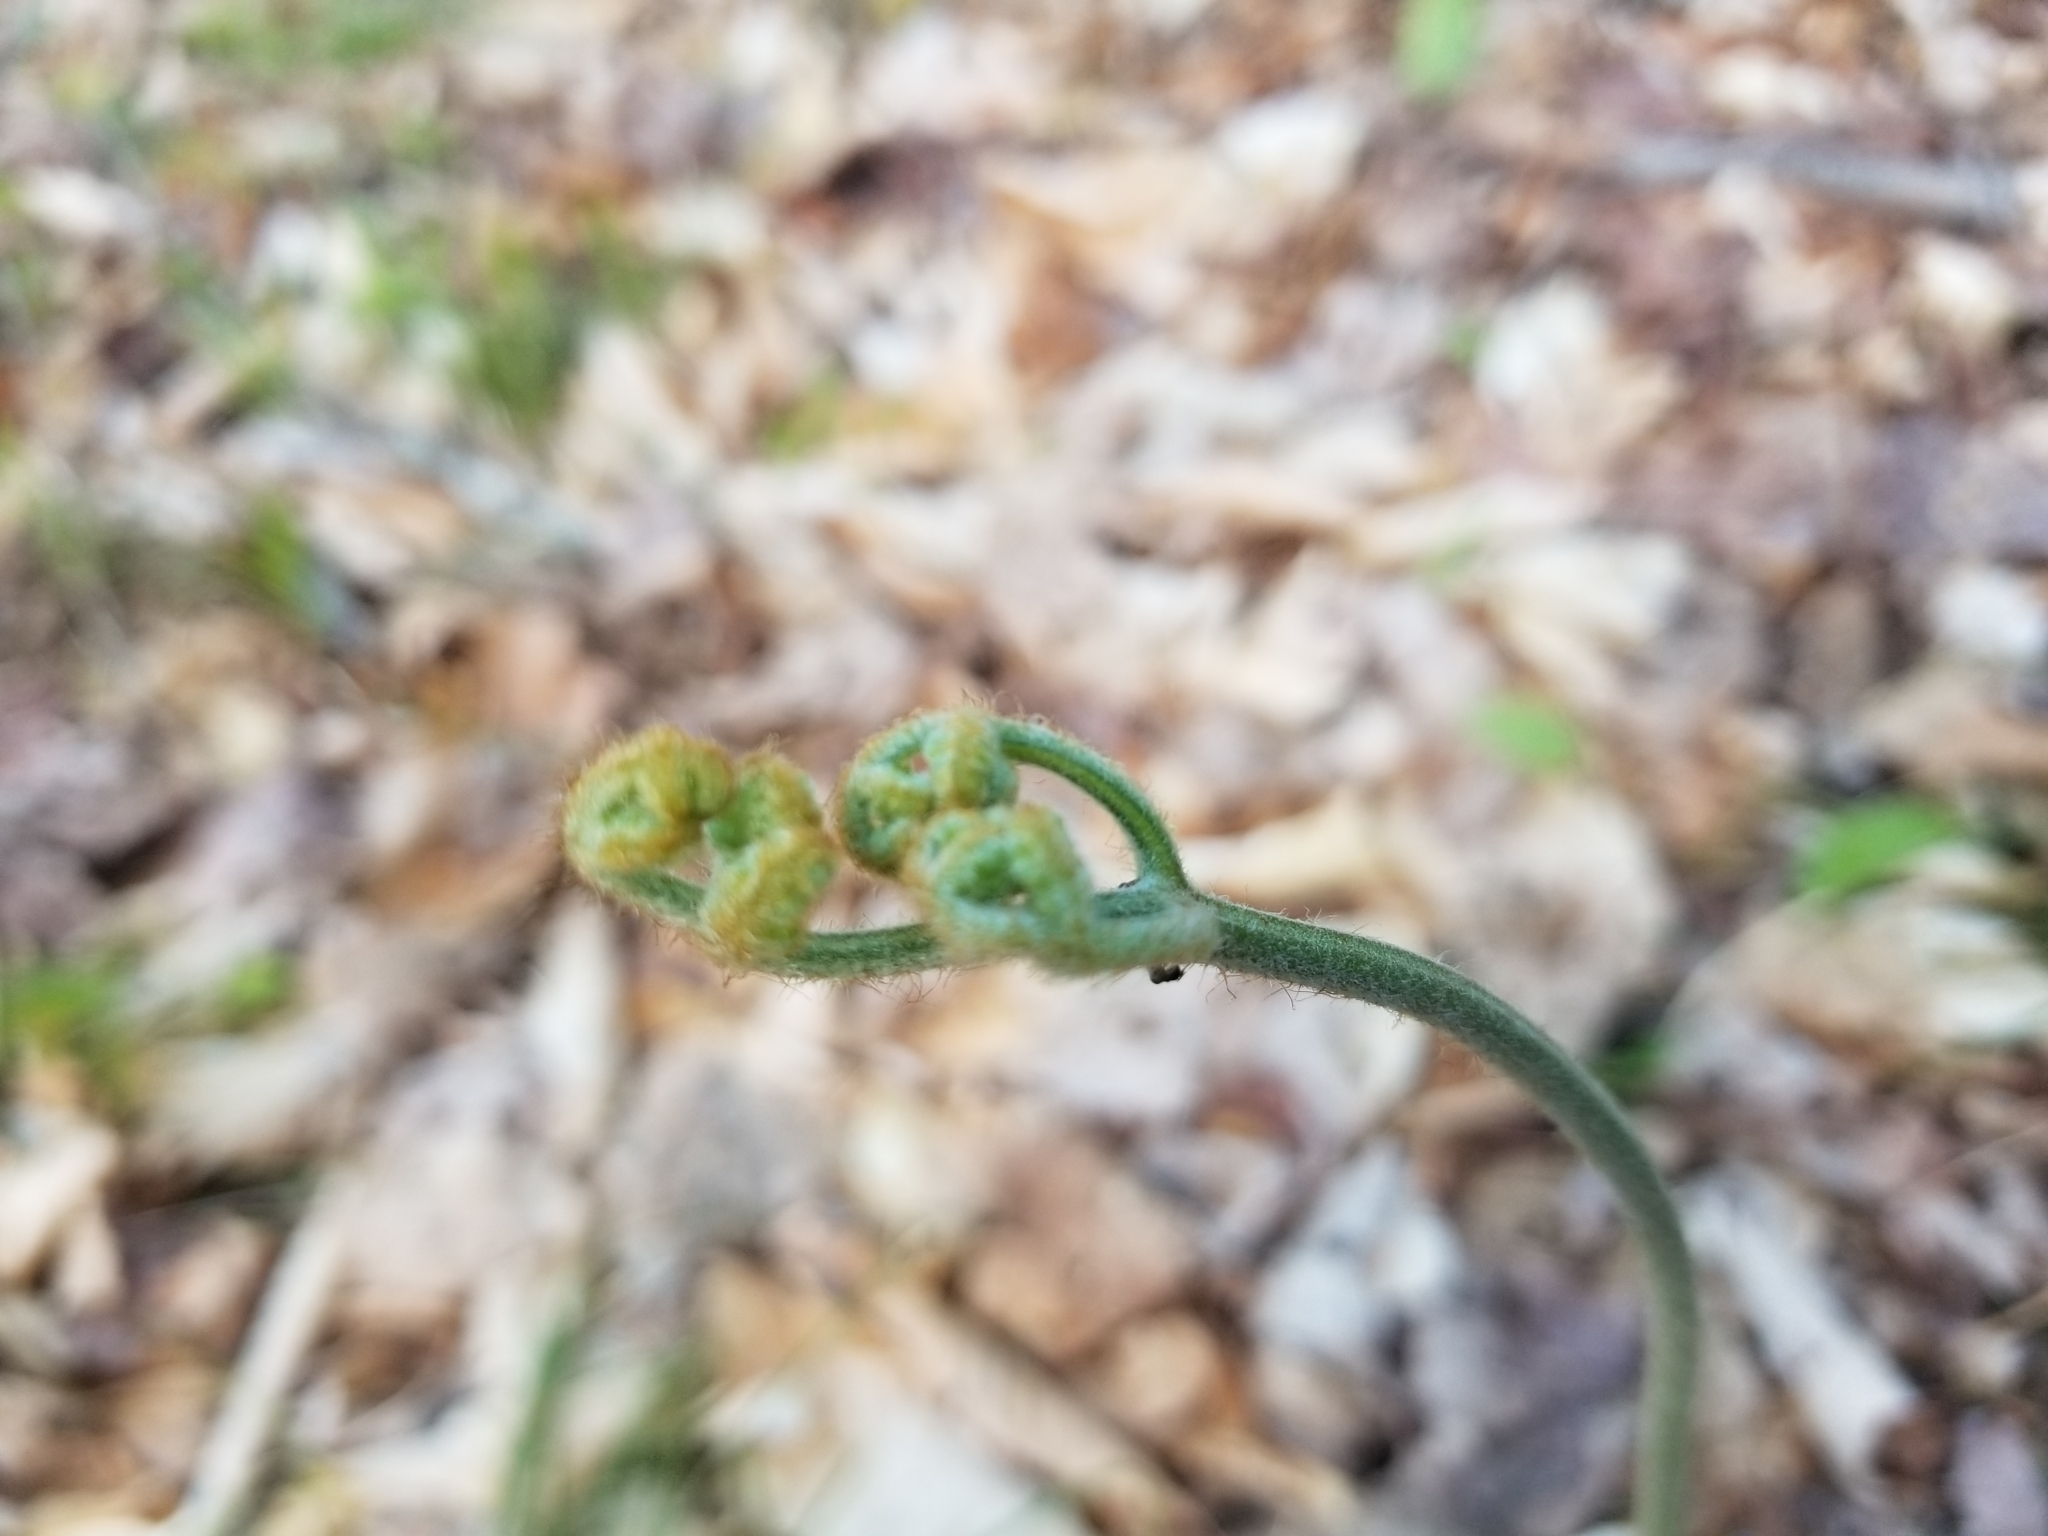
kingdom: Plantae
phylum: Tracheophyta
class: Polypodiopsida
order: Polypodiales
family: Dennstaedtiaceae
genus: Pteridium
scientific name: Pteridium aquilinum
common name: Bracken
